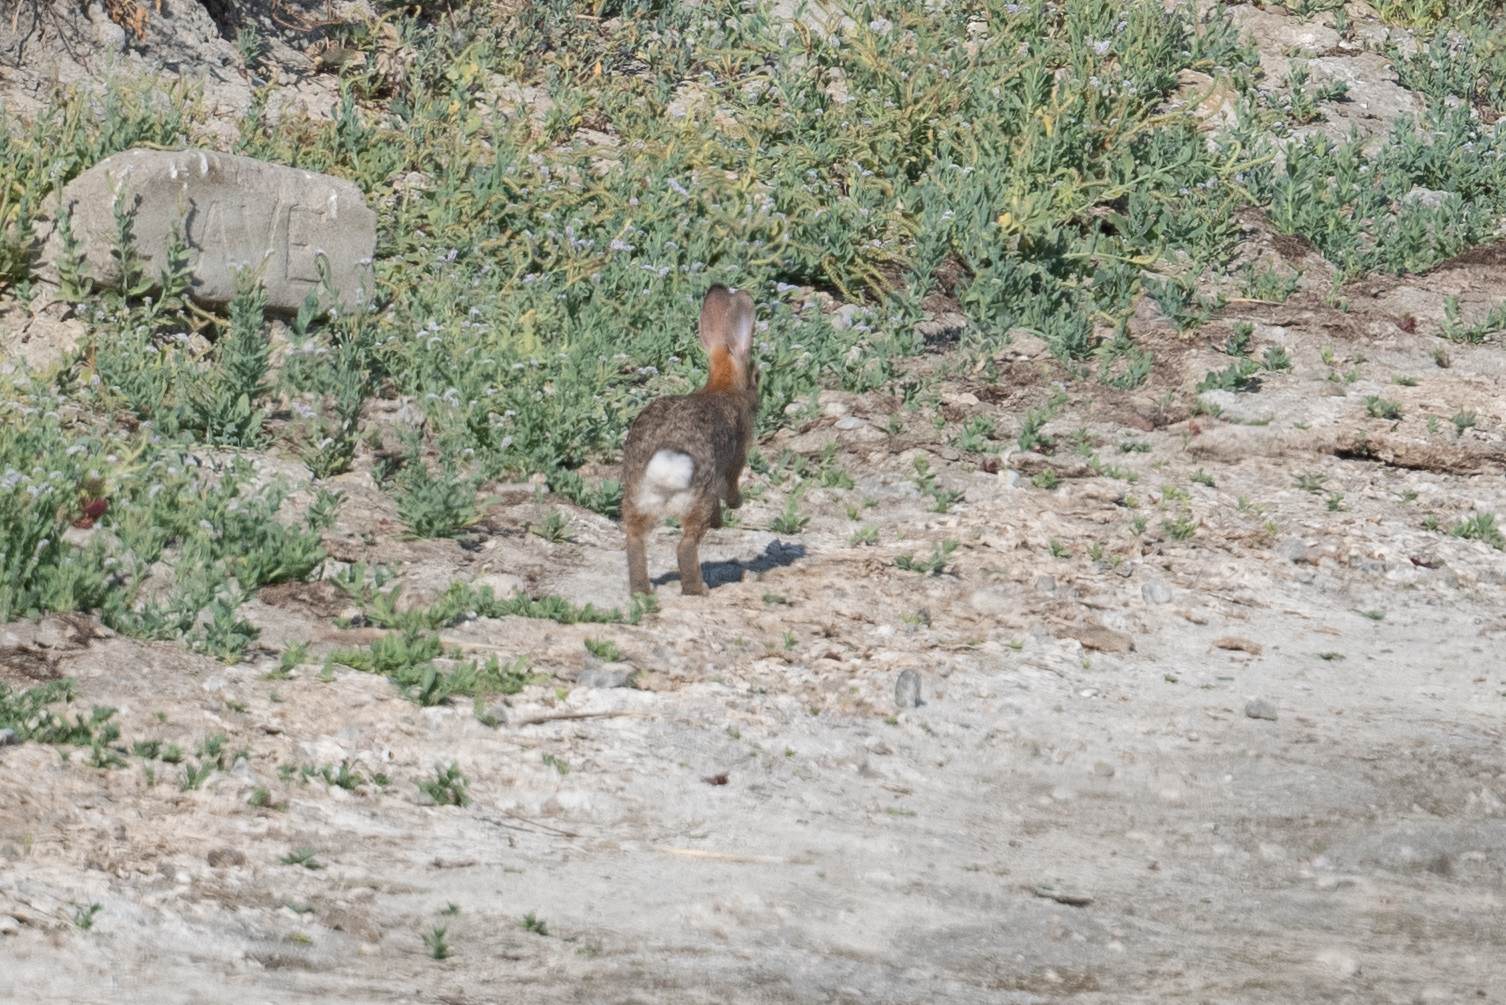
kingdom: Animalia
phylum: Chordata
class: Mammalia
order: Lagomorpha
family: Leporidae
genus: Sylvilagus
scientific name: Sylvilagus audubonii
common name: Desert cottontail
